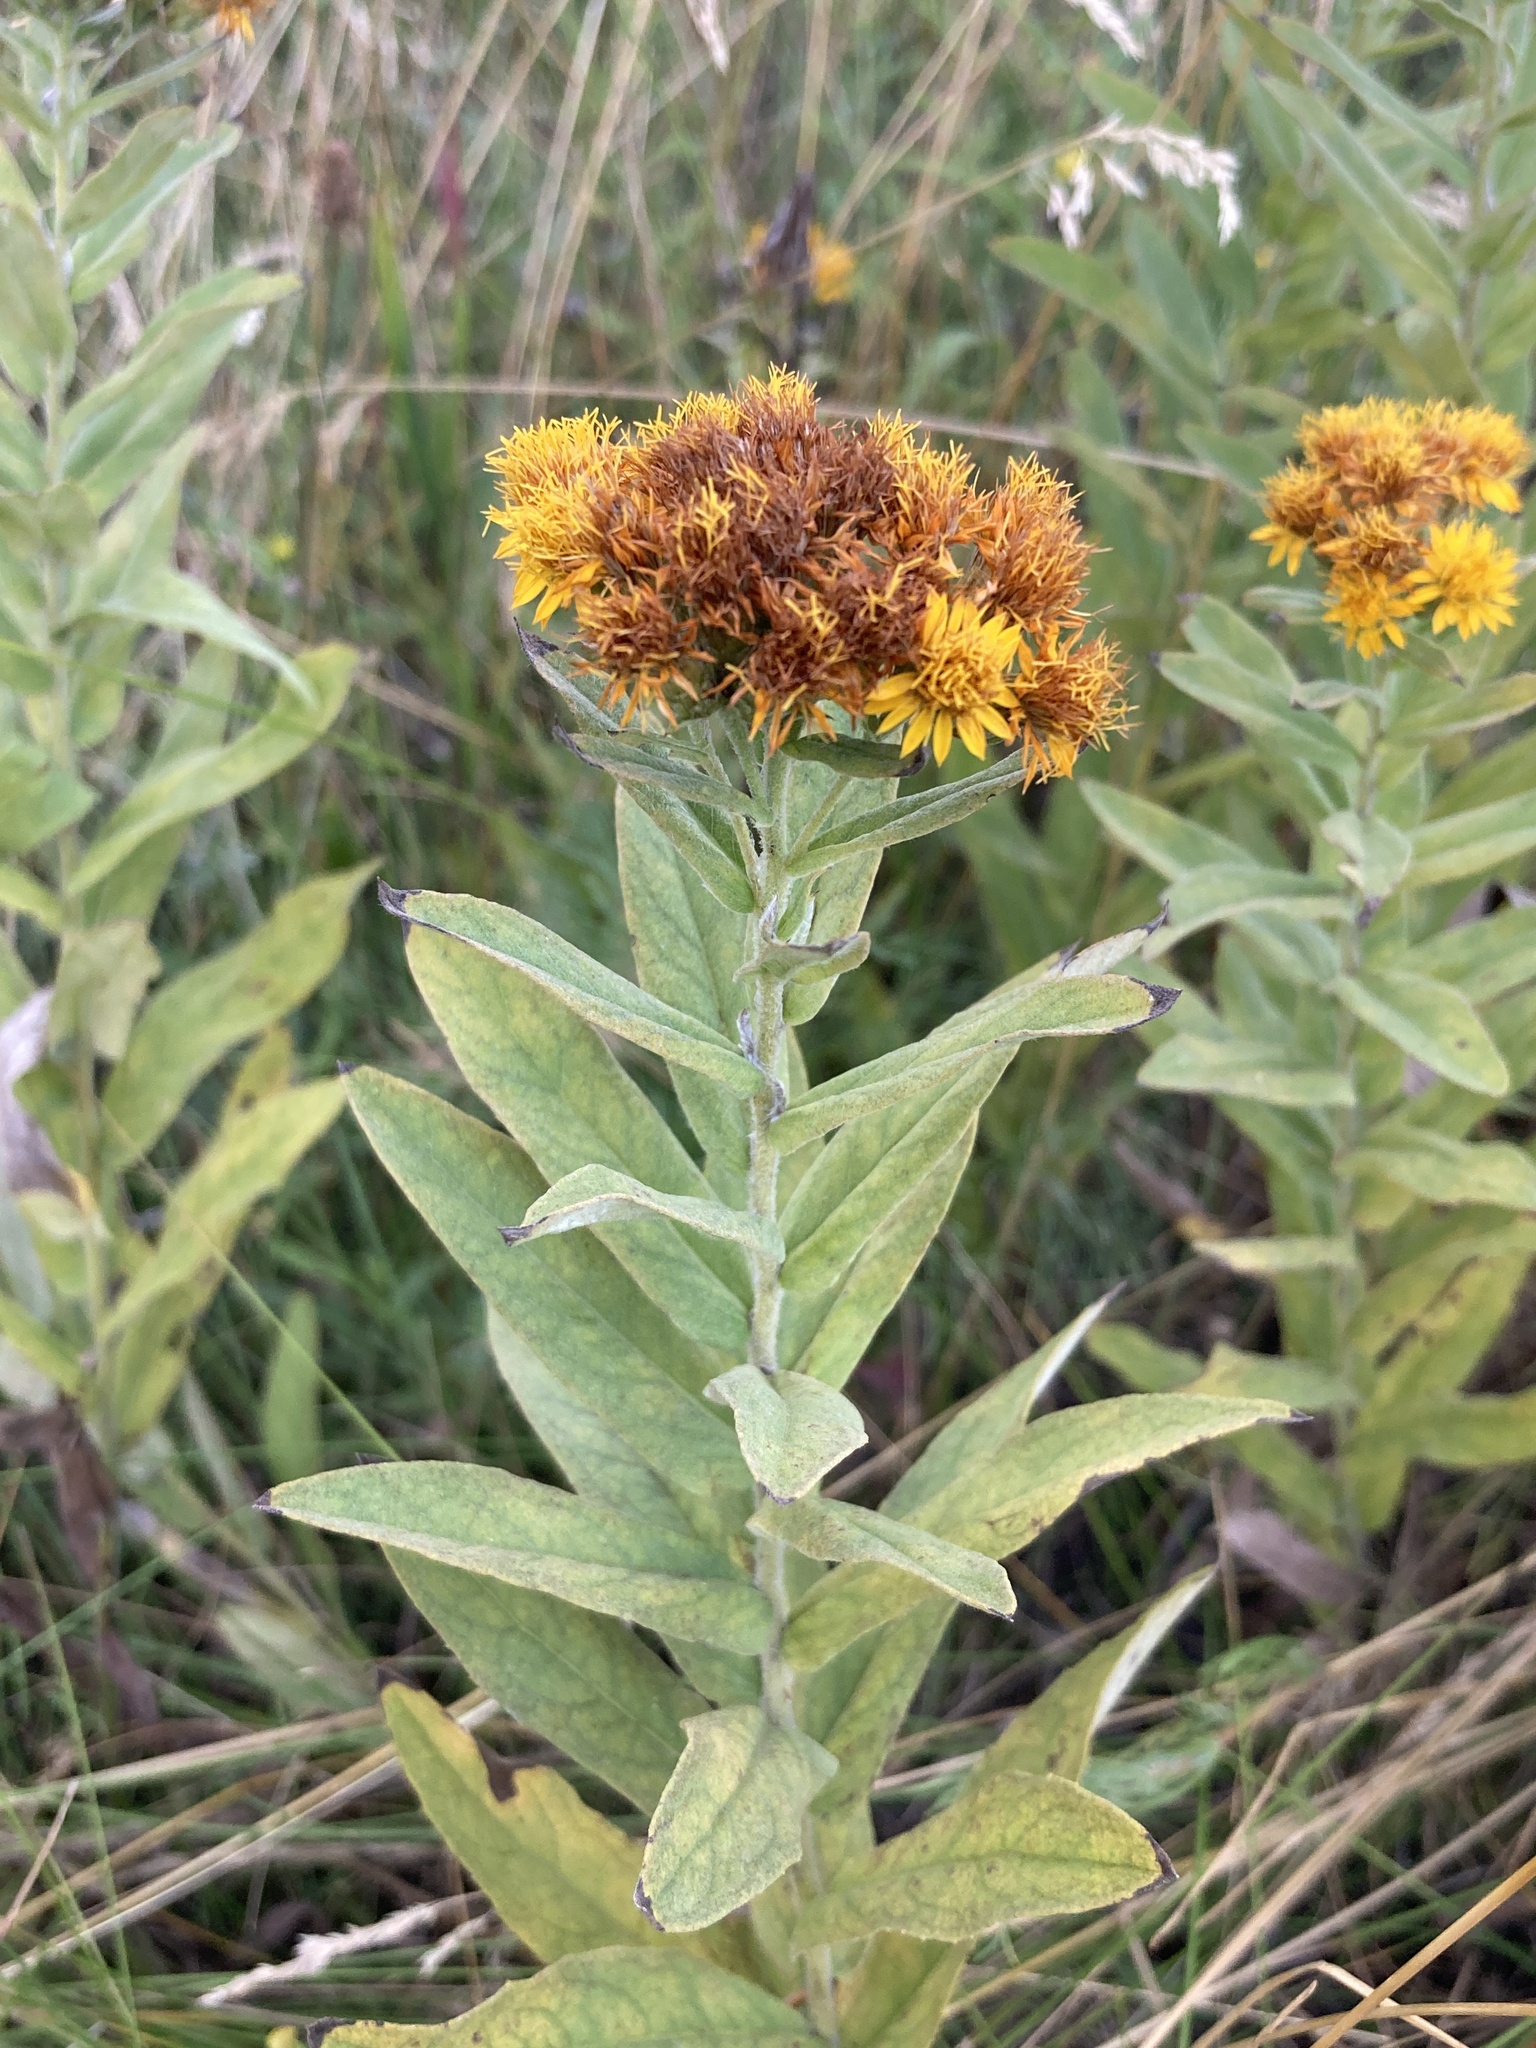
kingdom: Plantae
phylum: Tracheophyta
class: Magnoliopsida
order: Asterales
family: Asteraceae
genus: Pentanema
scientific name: Pentanema germanicum
